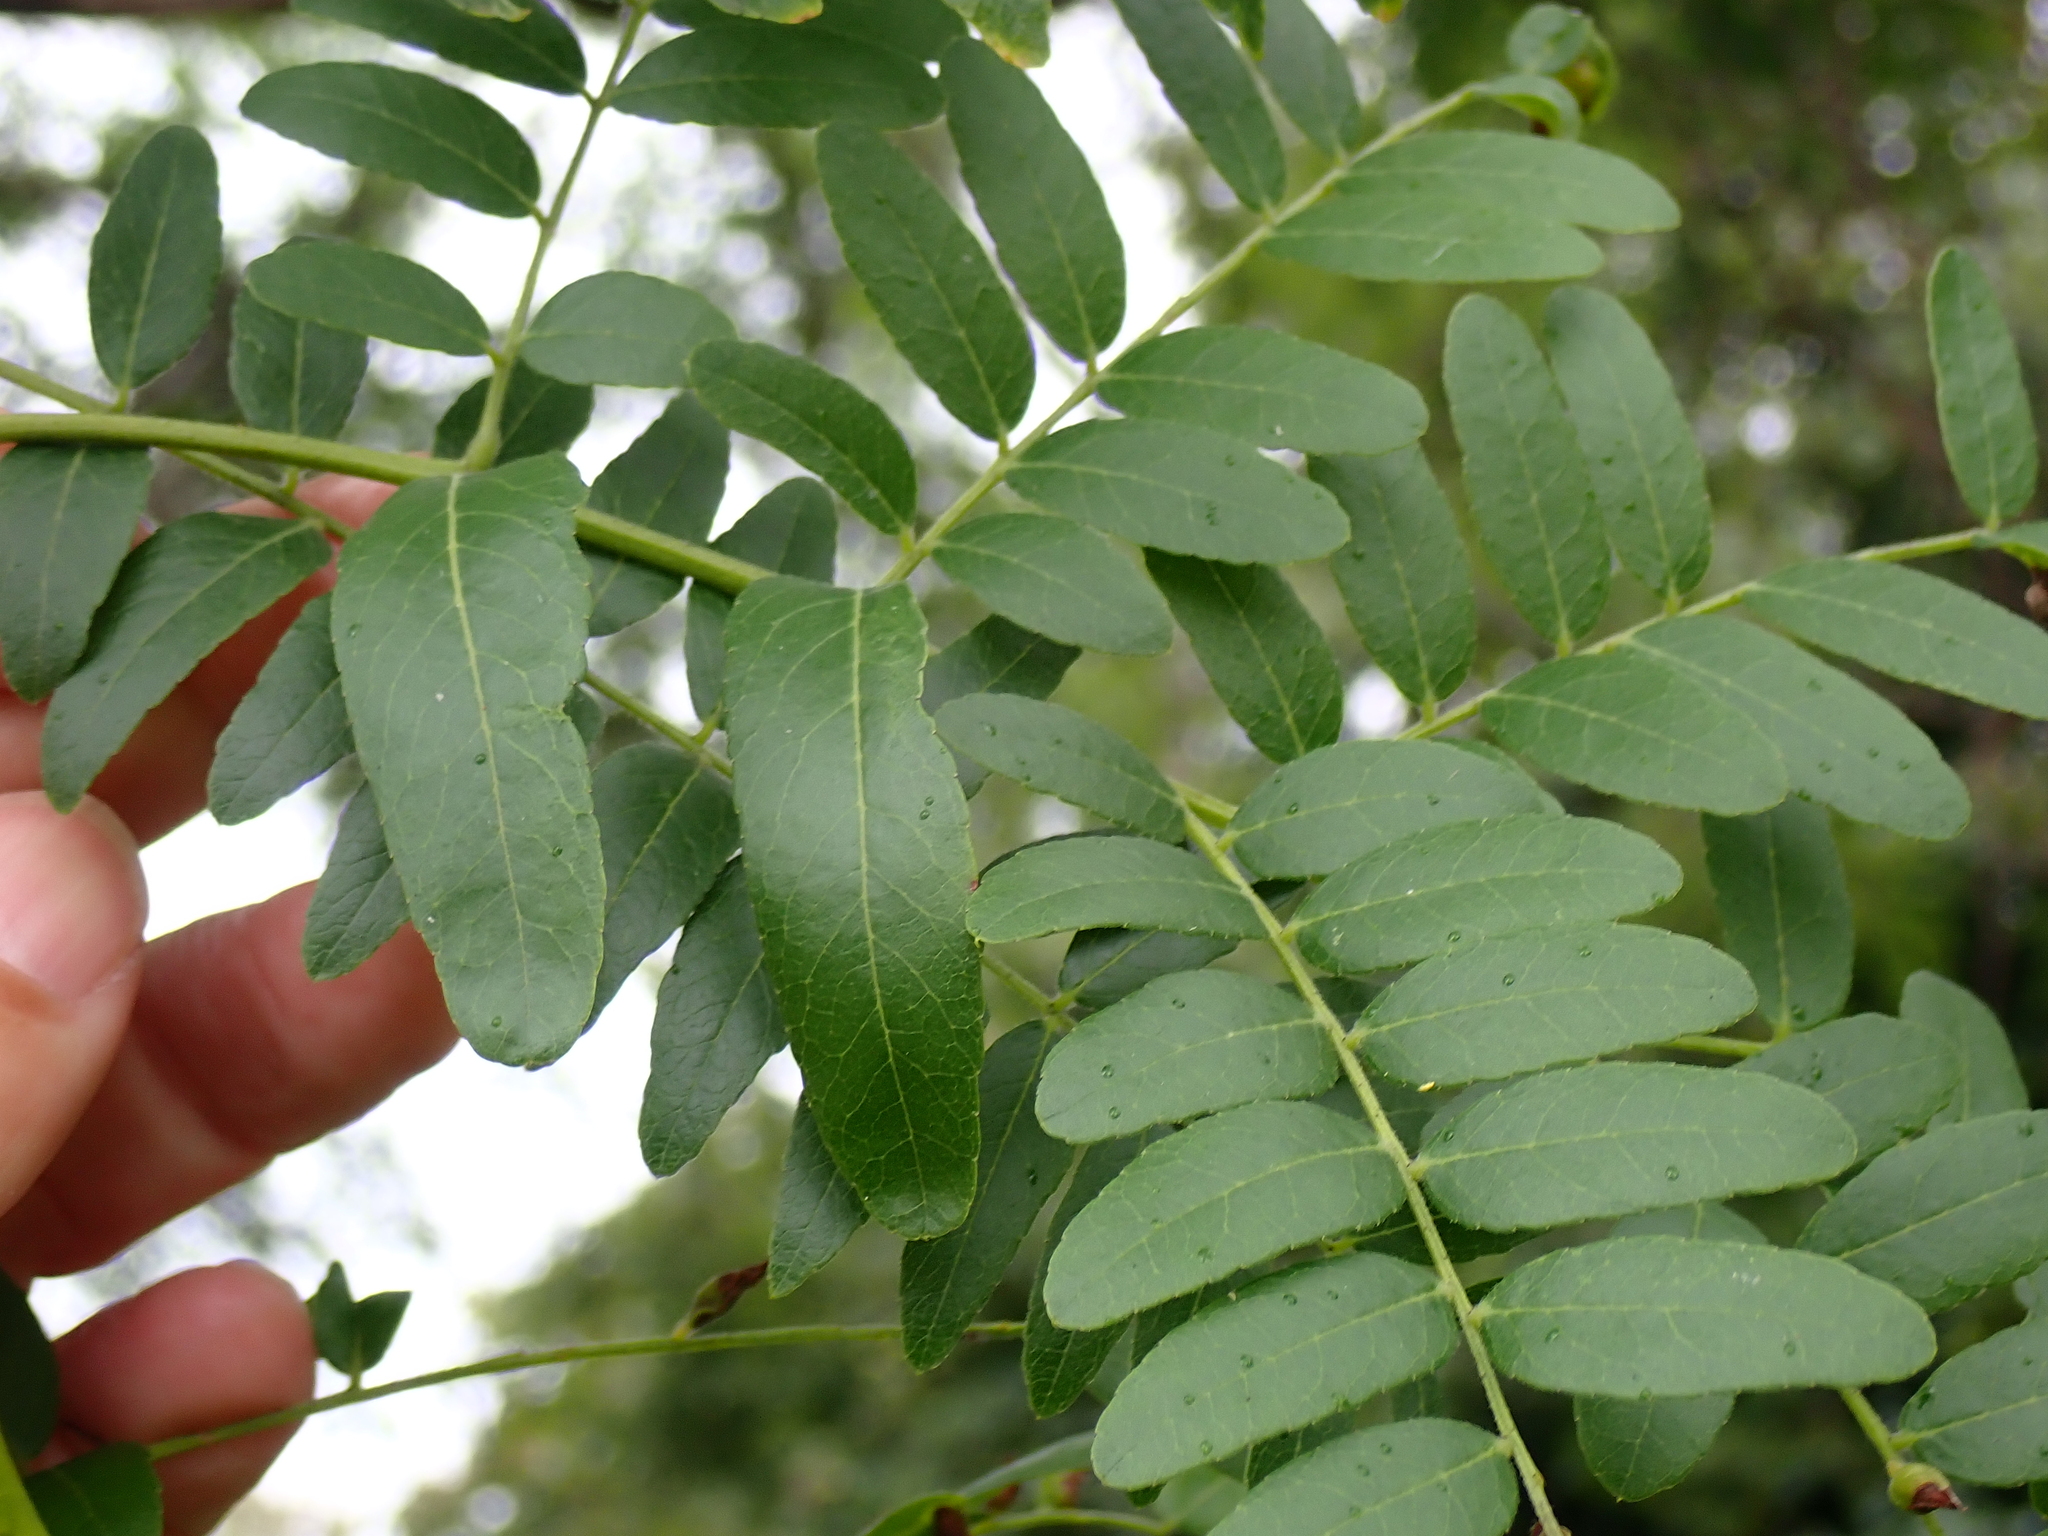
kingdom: Plantae
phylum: Tracheophyta
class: Magnoliopsida
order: Fabales
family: Fabaceae
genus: Gleditsia
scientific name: Gleditsia triacanthos
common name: Common honeylocust
